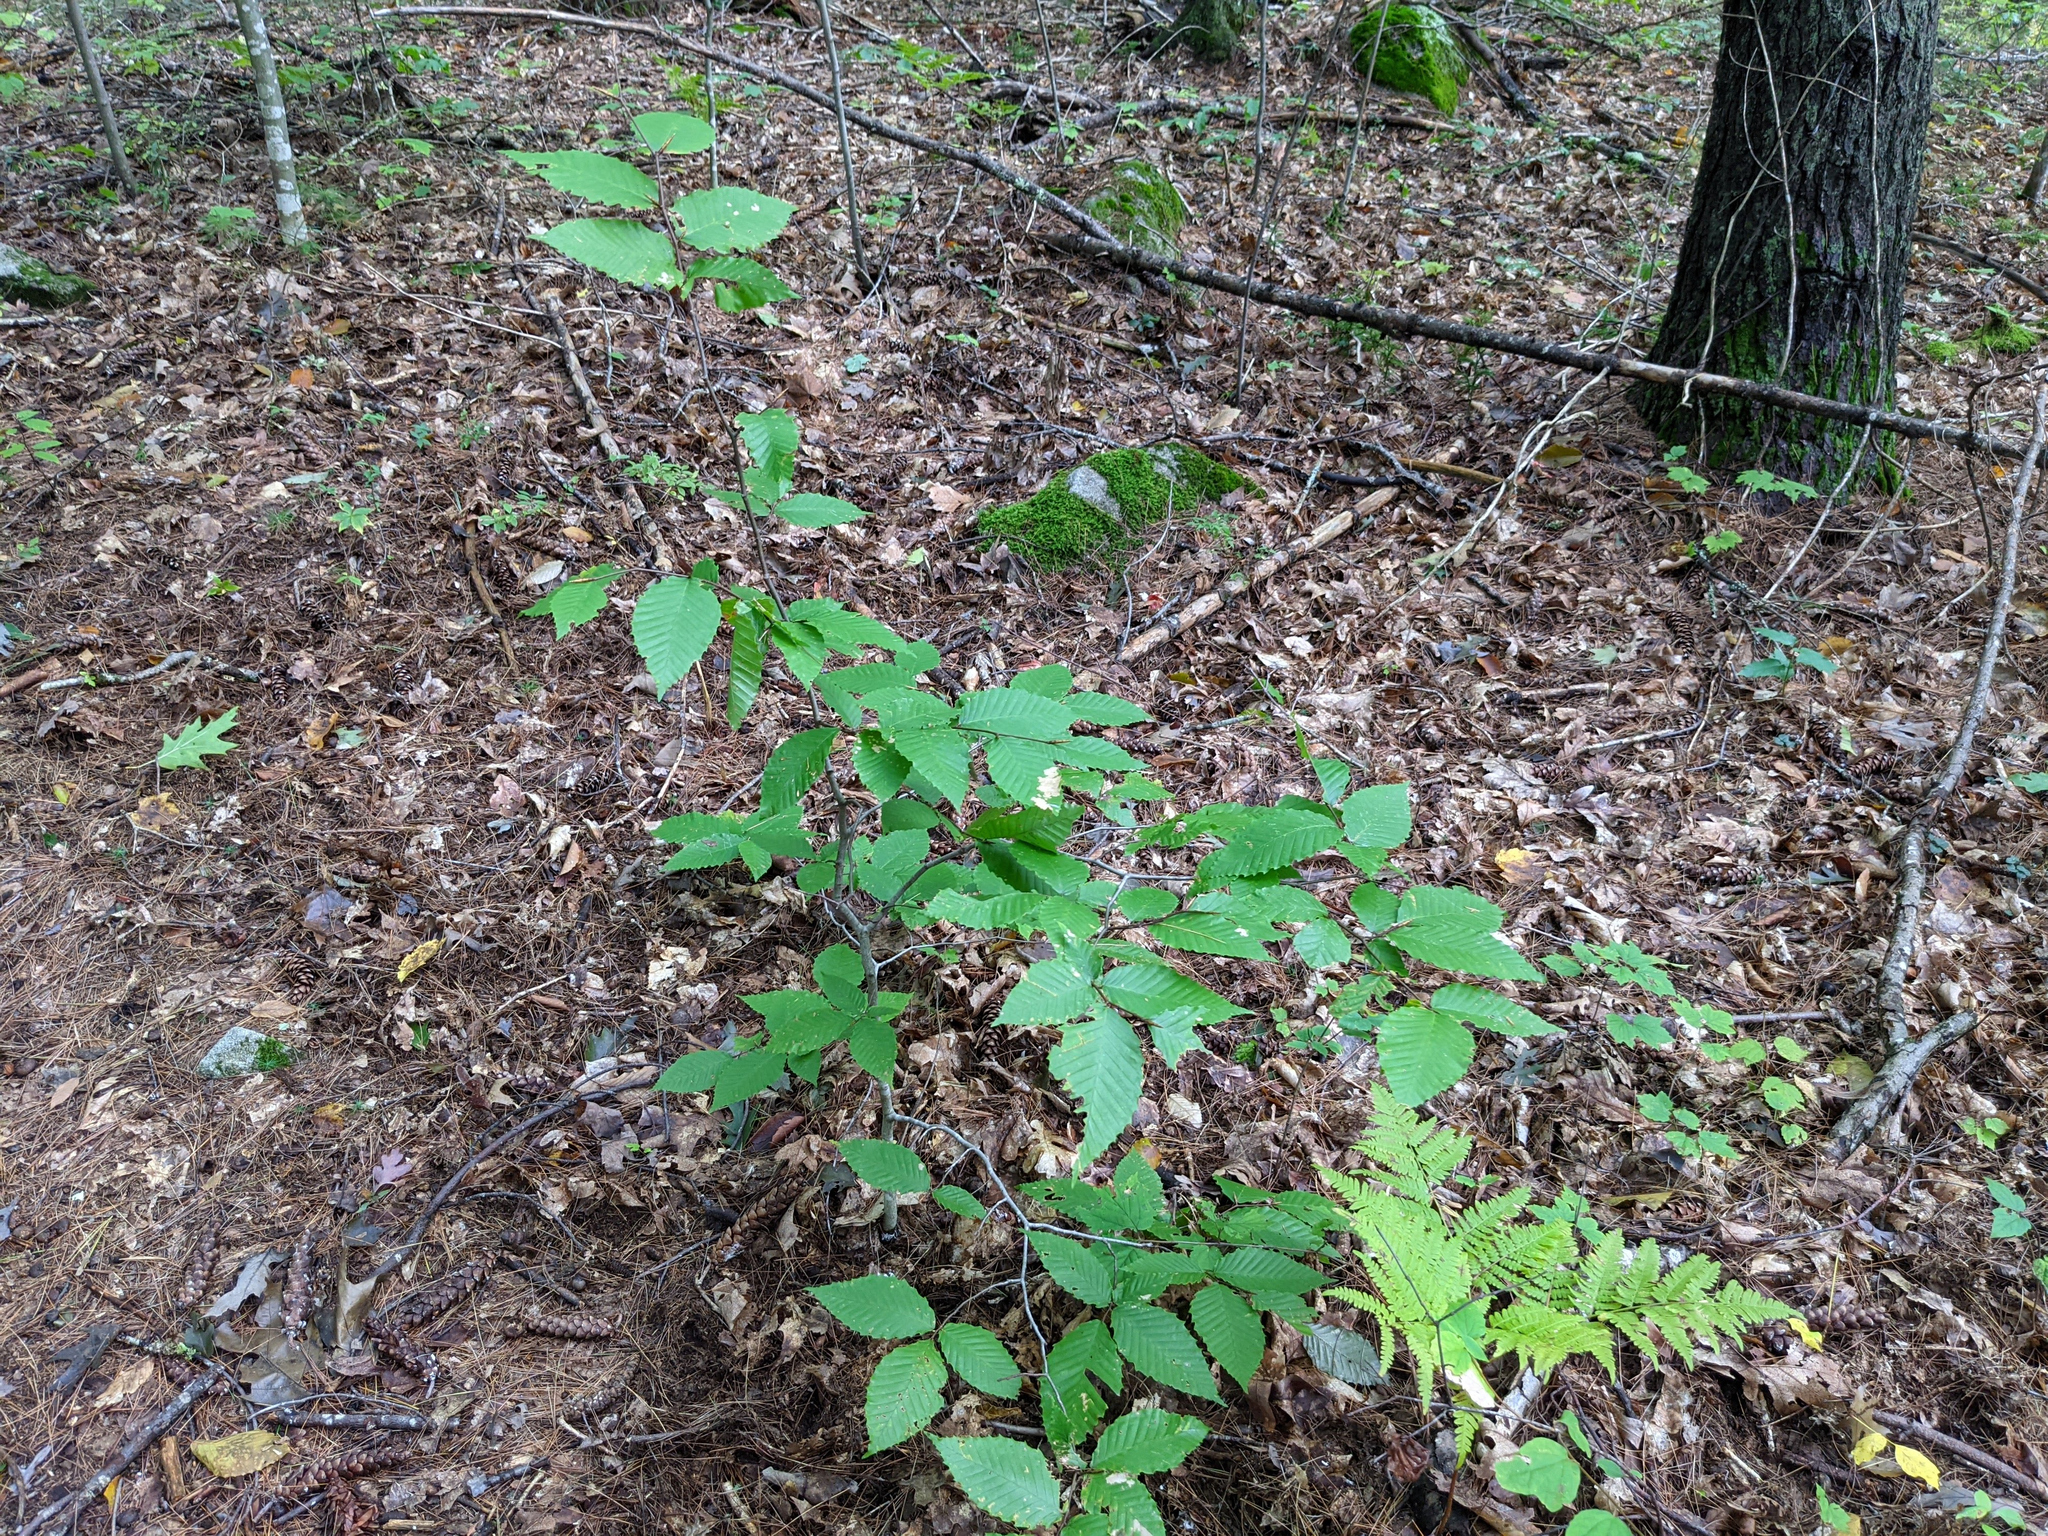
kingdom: Plantae
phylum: Tracheophyta
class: Magnoliopsida
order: Fagales
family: Fagaceae
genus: Fagus
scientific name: Fagus grandifolia
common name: American beech
